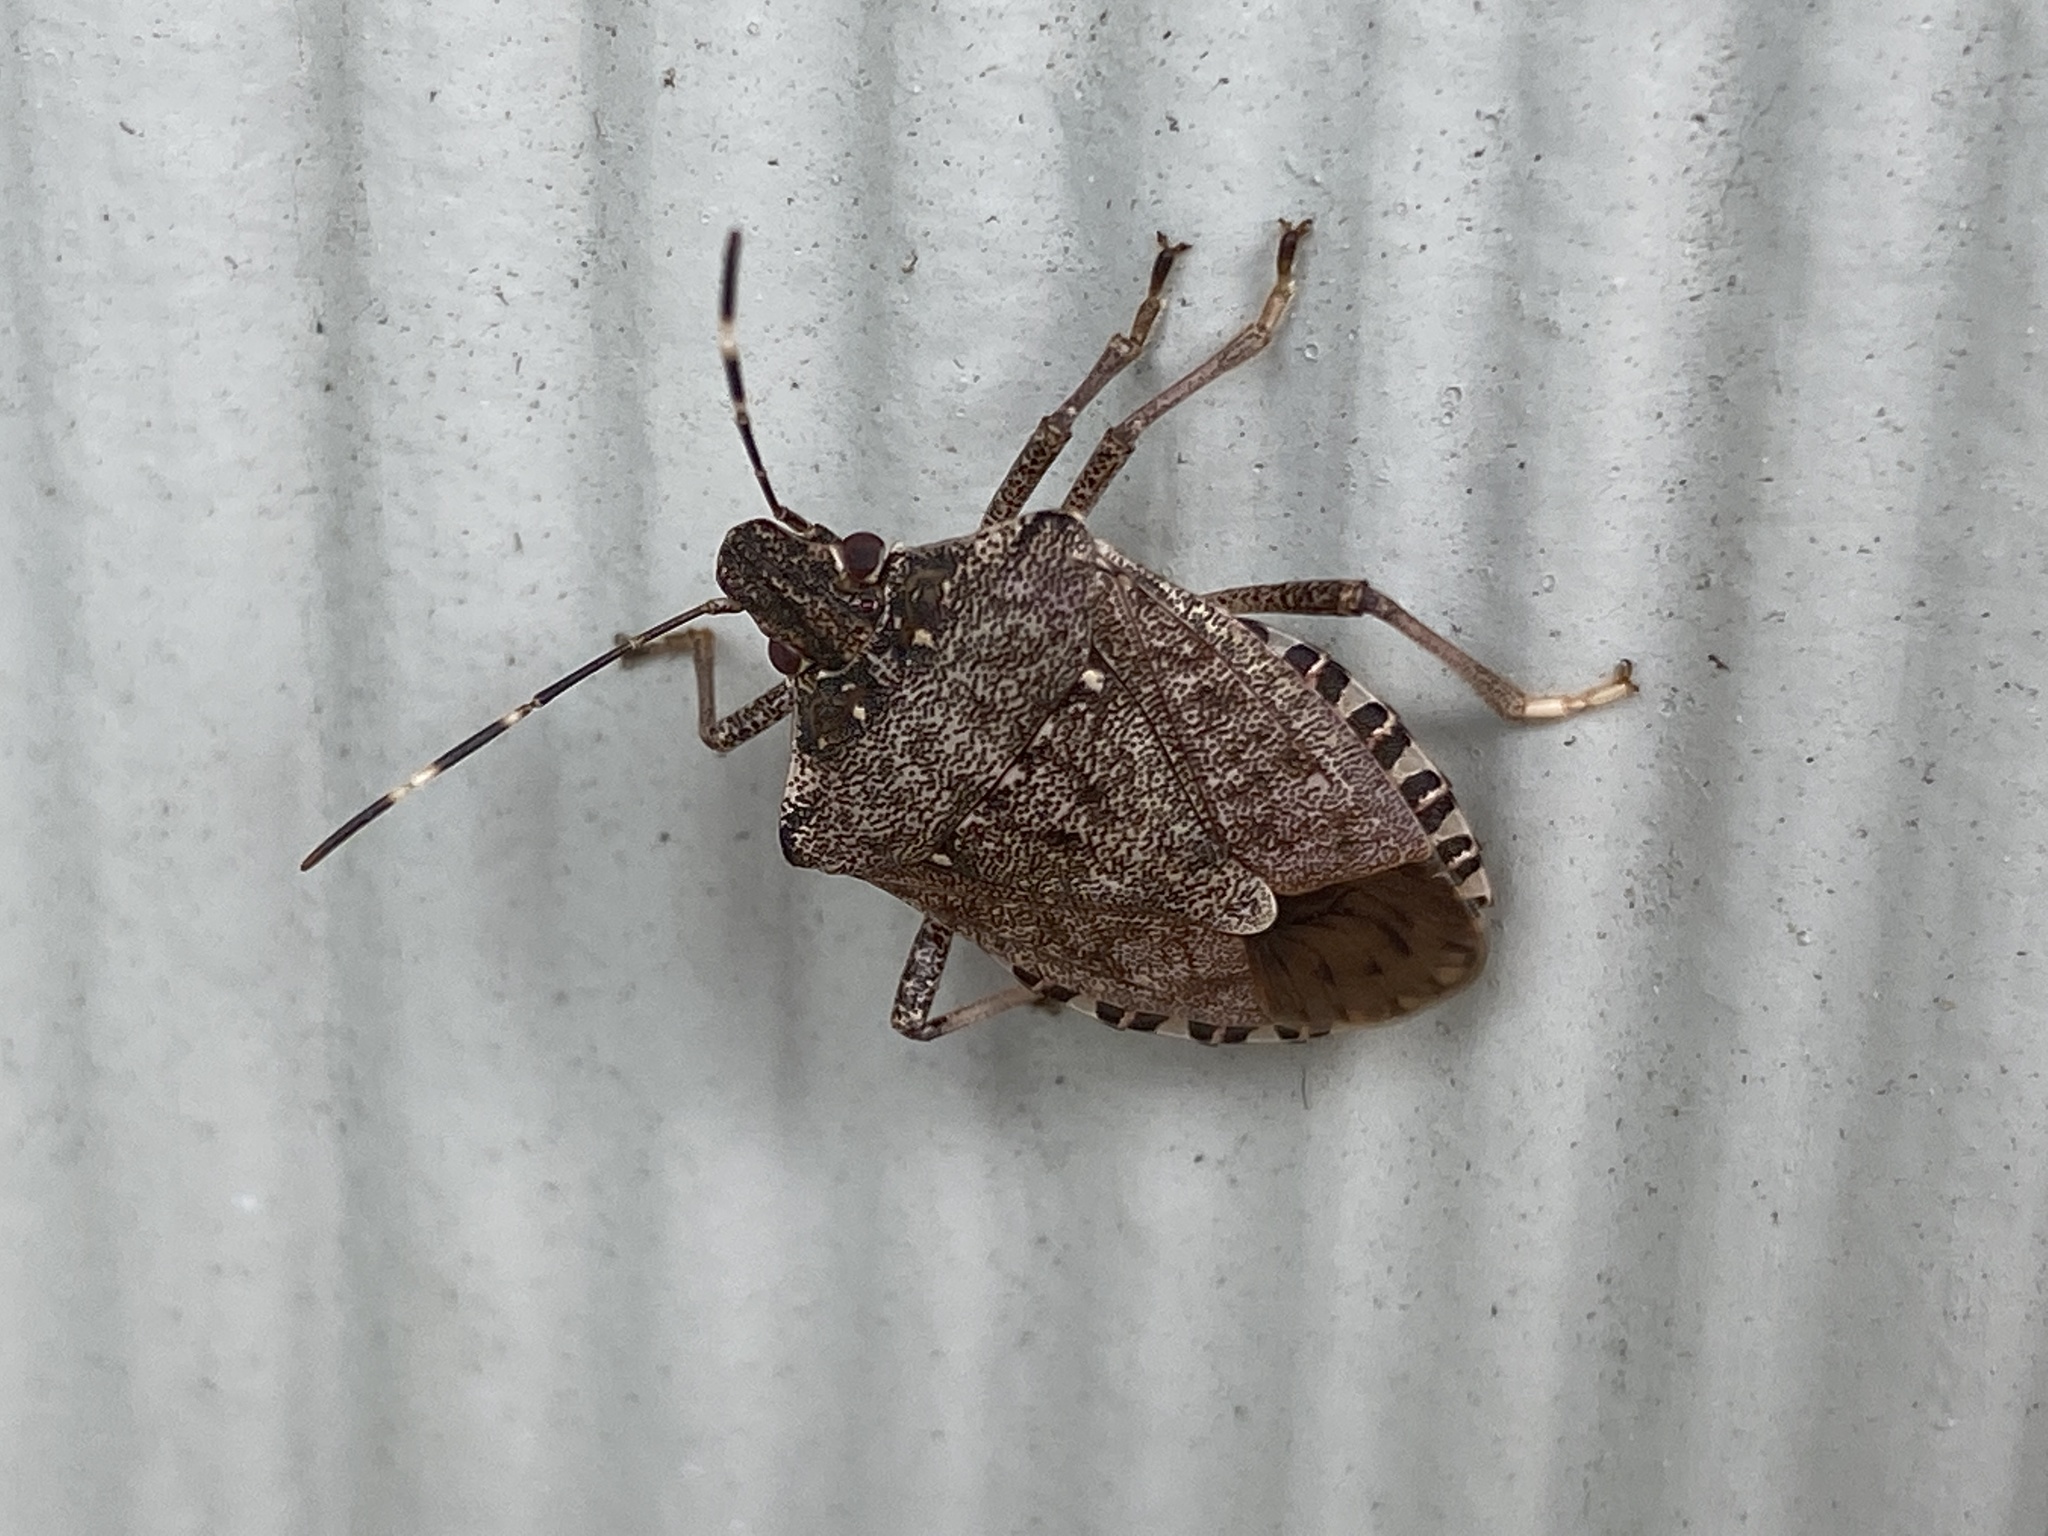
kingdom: Animalia
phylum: Arthropoda
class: Insecta
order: Hemiptera
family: Pentatomidae
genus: Halyomorpha
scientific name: Halyomorpha halys
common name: Brown marmorated stink bug
